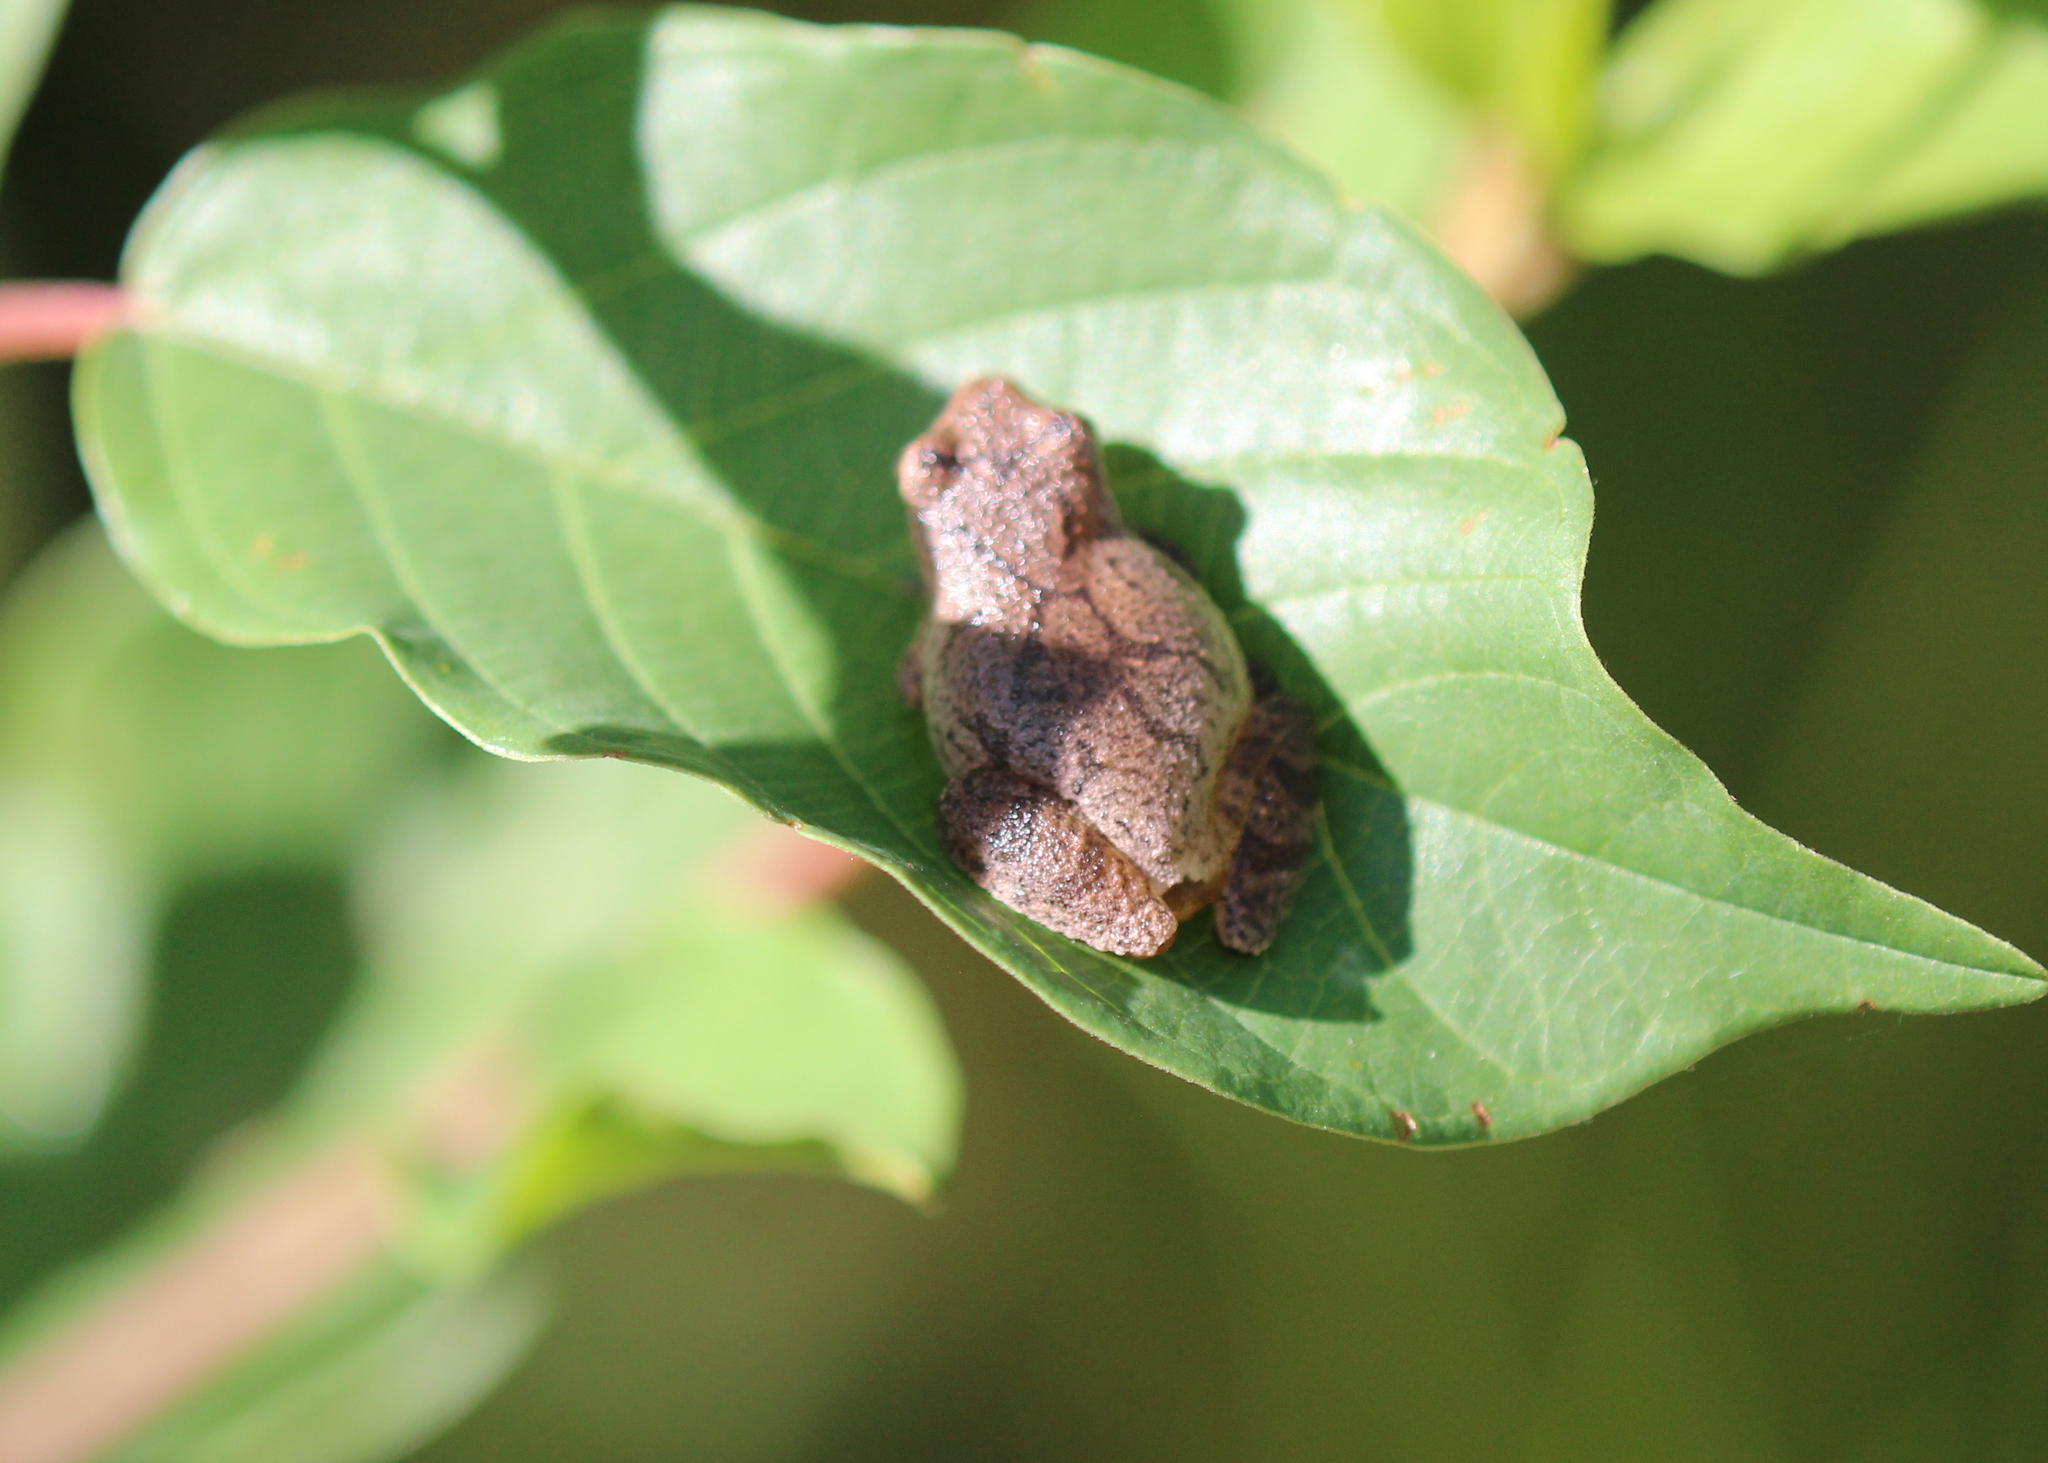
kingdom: Animalia
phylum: Chordata
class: Amphibia
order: Anura
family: Hylidae
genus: Pseudacris
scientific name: Pseudacris crucifer
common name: Spring peeper
